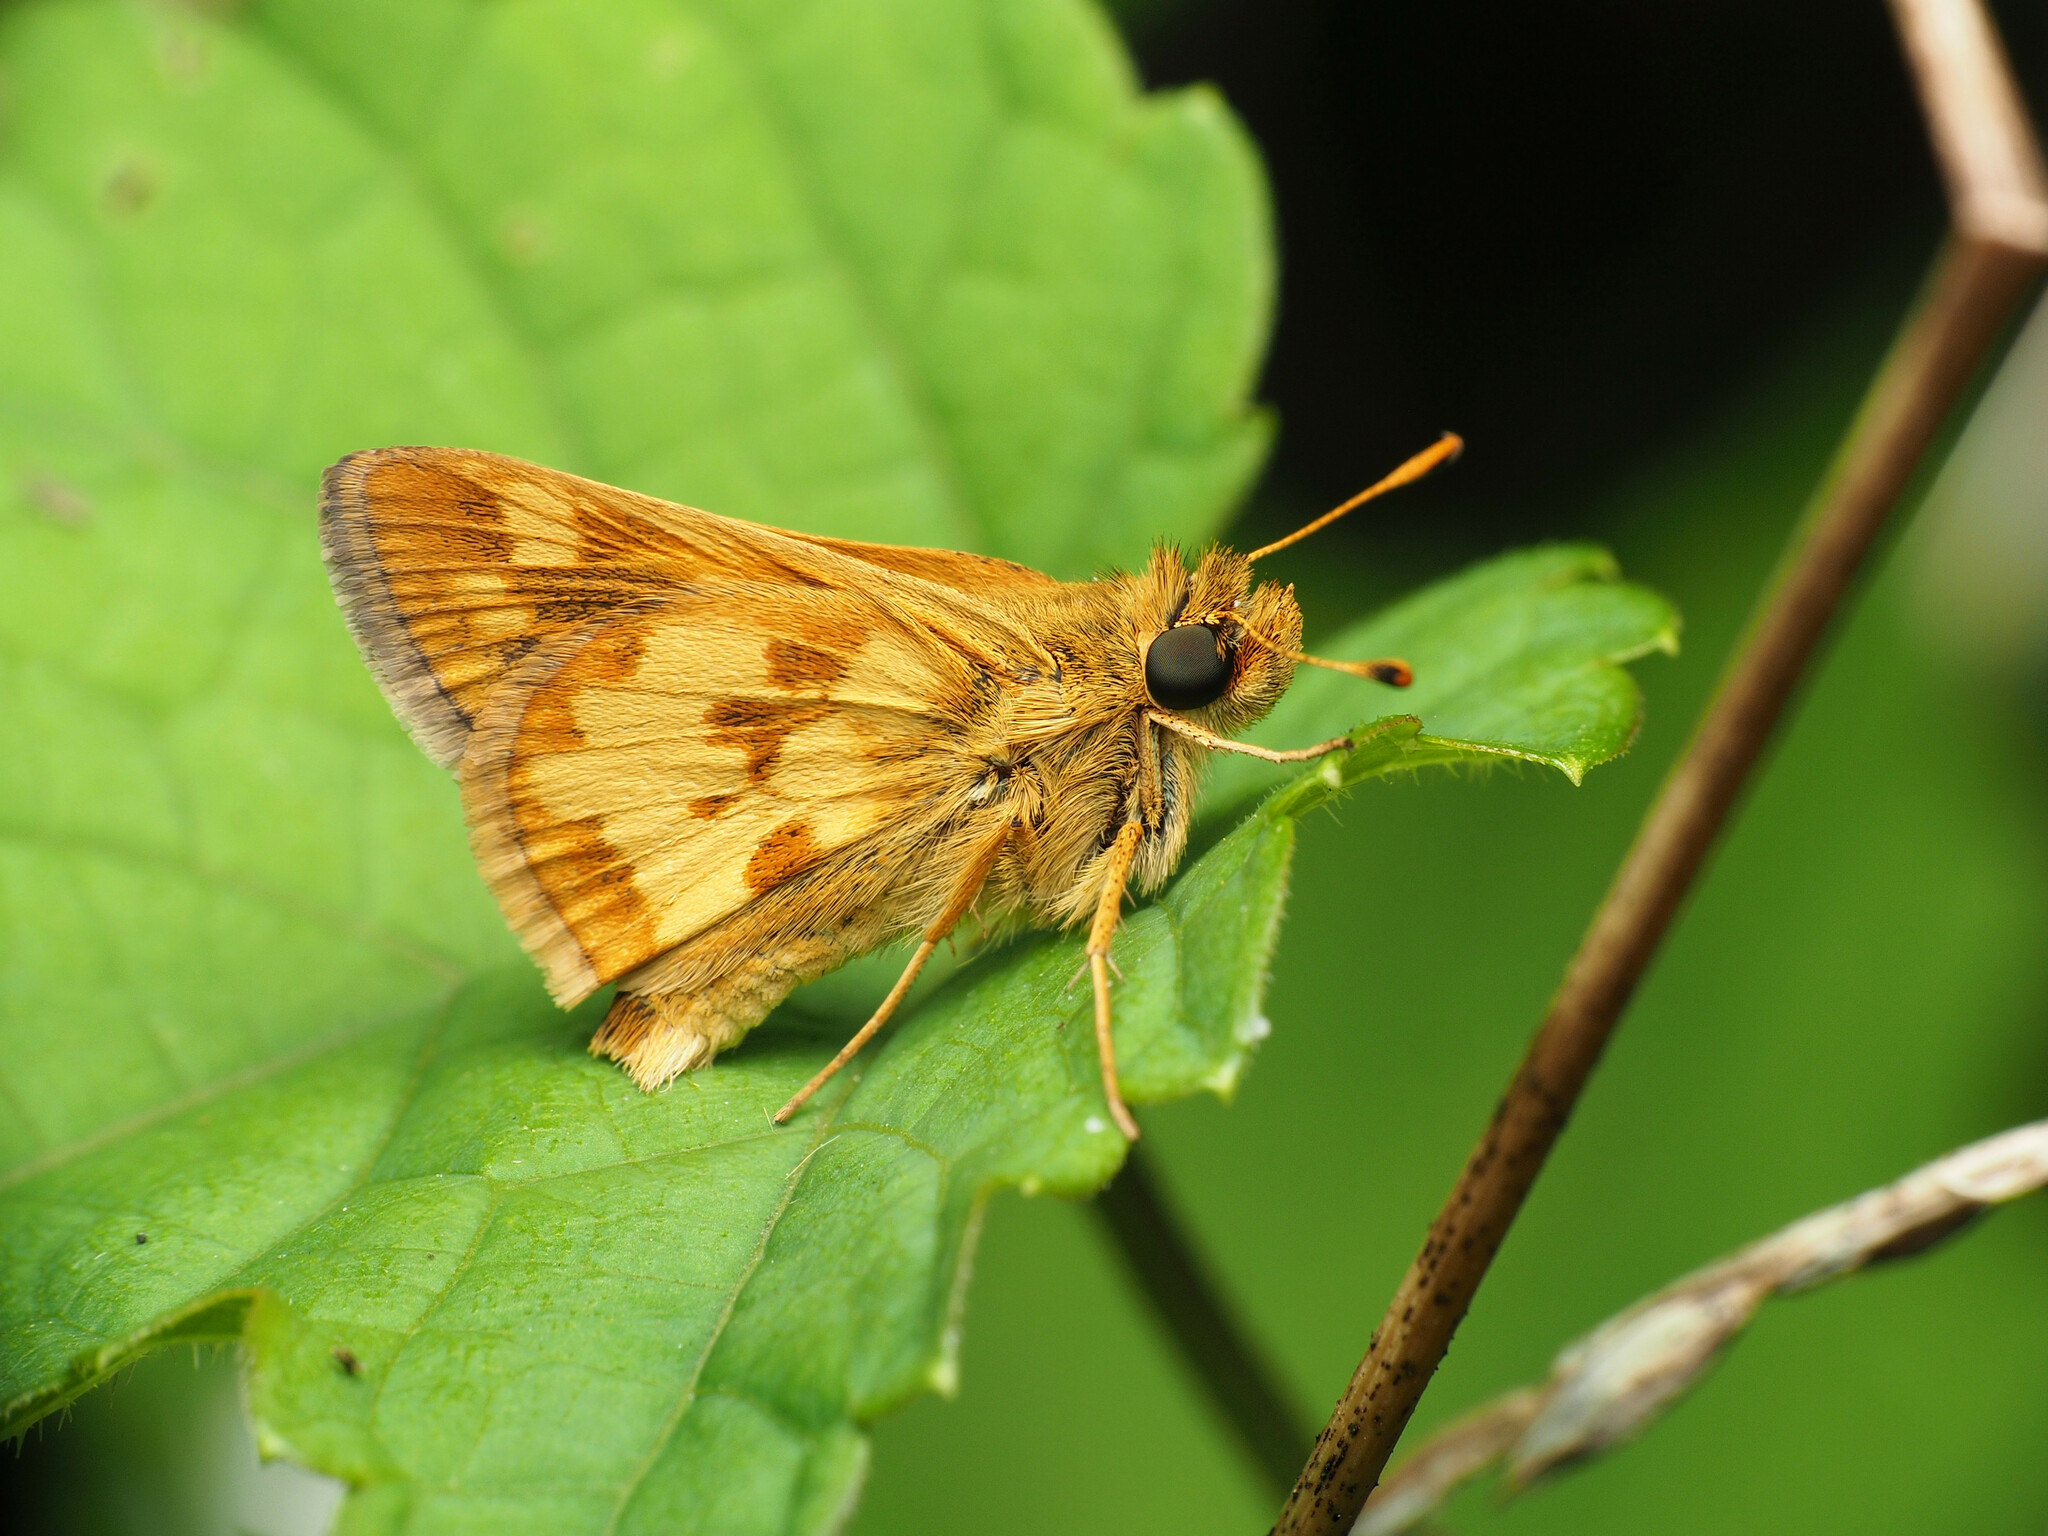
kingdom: Animalia
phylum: Arthropoda
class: Insecta
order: Lepidoptera
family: Hesperiidae
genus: Polites
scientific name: Polites coras
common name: Peck's skipper
